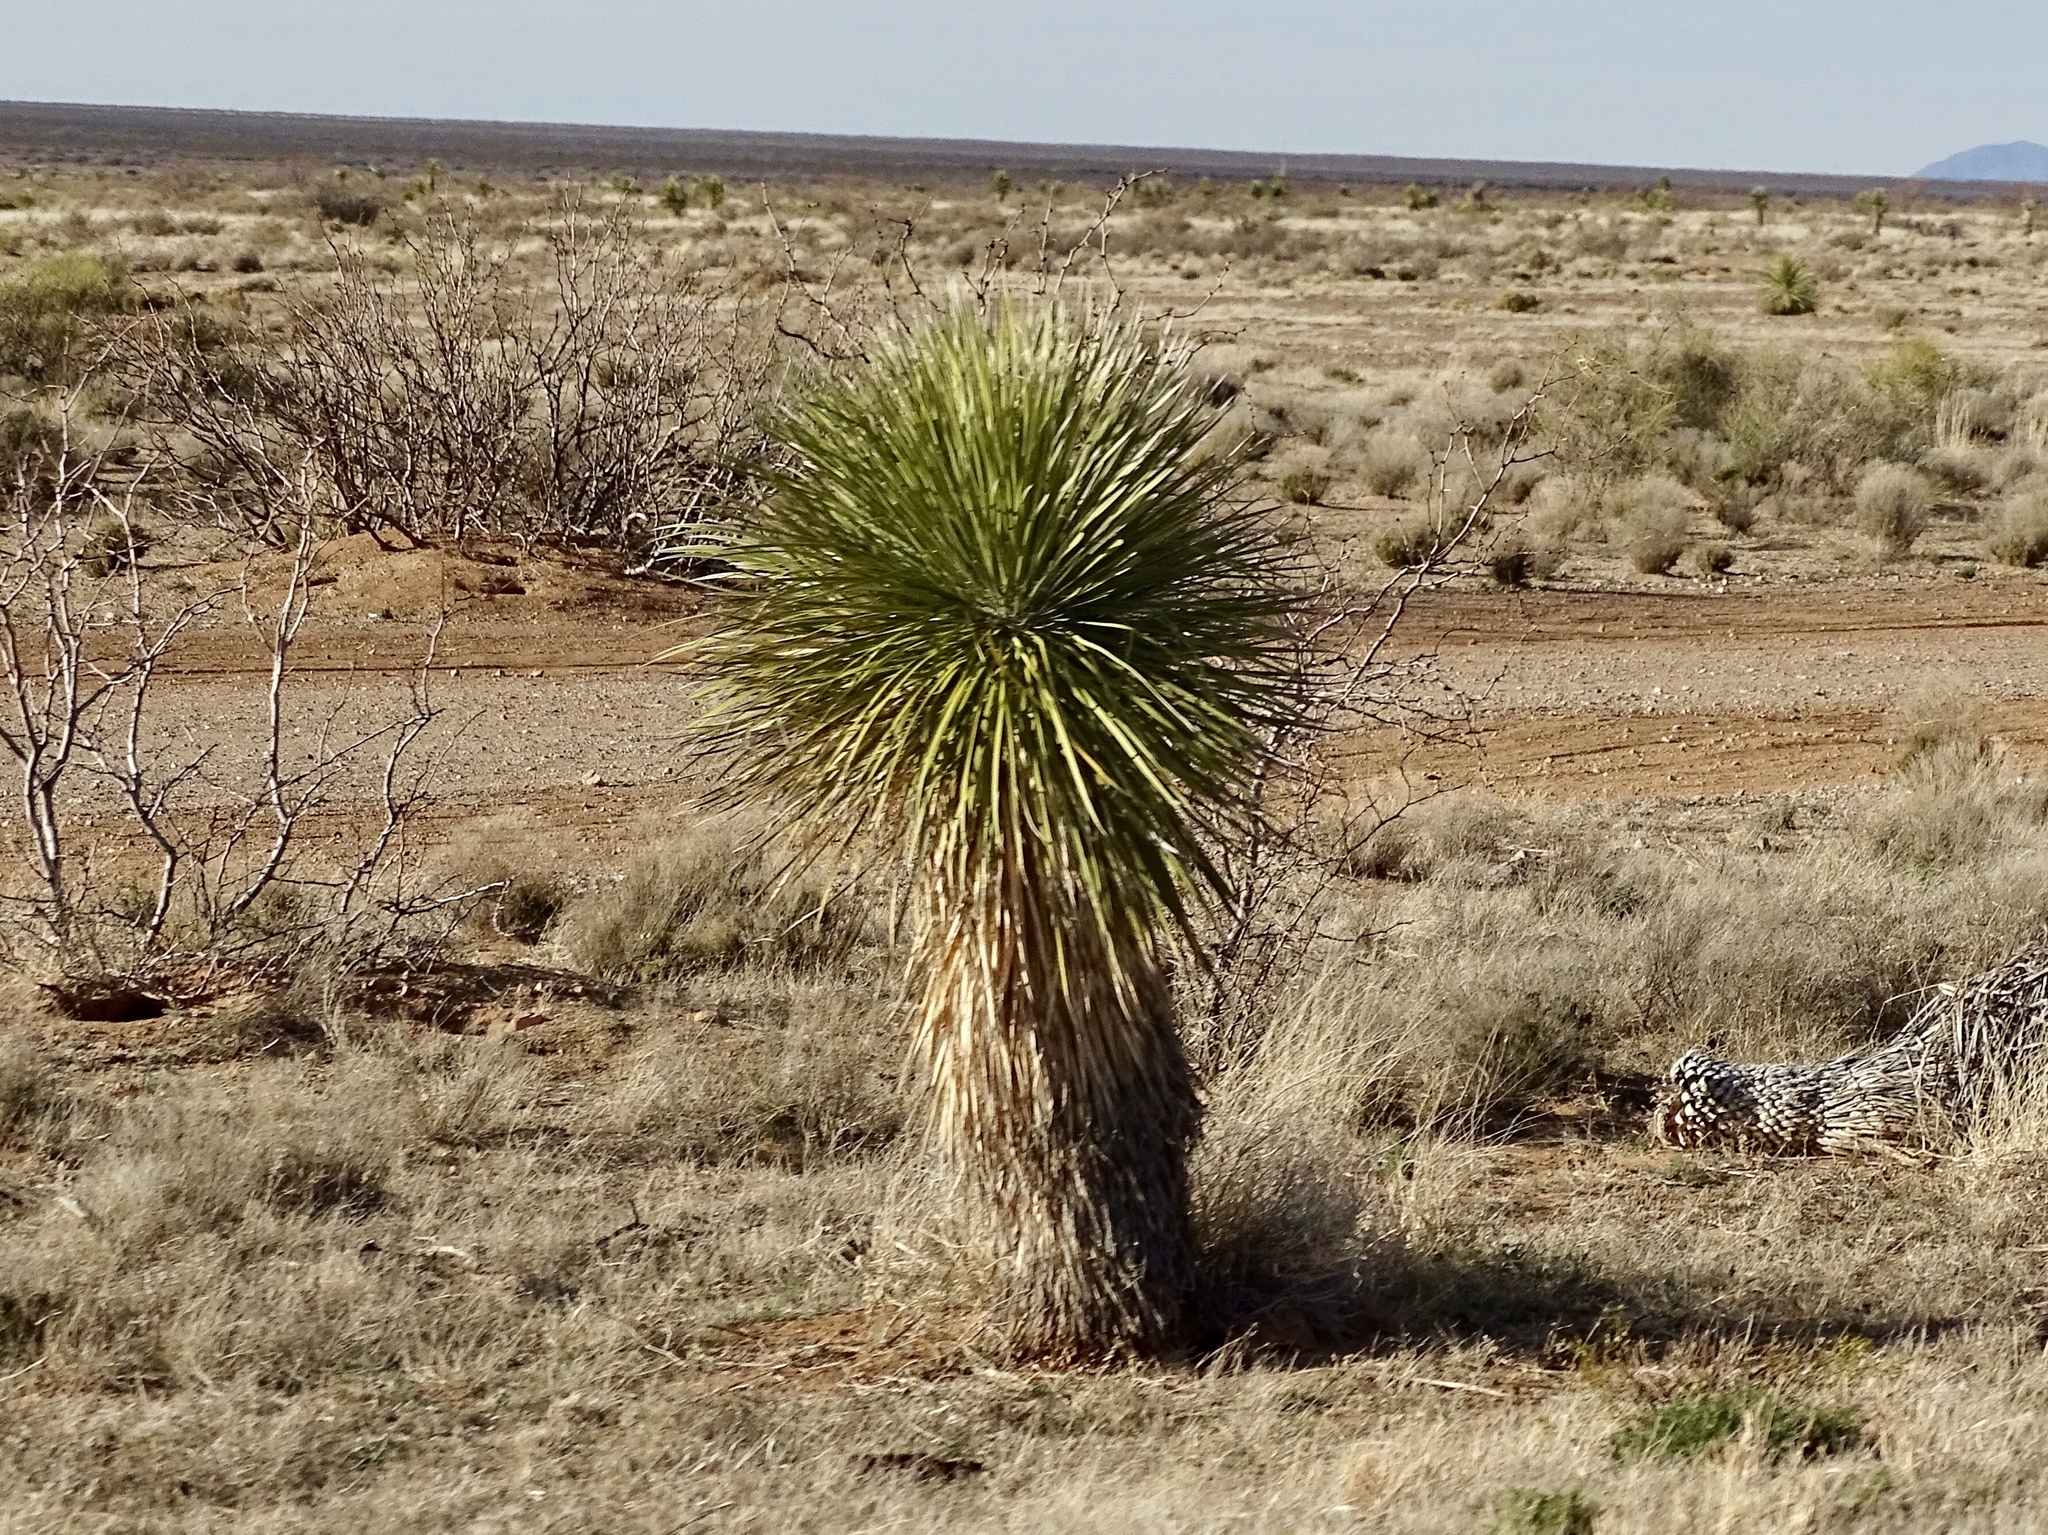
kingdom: Plantae
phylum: Tracheophyta
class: Liliopsida
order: Asparagales
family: Asparagaceae
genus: Yucca
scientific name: Yucca elata
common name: Palmella
